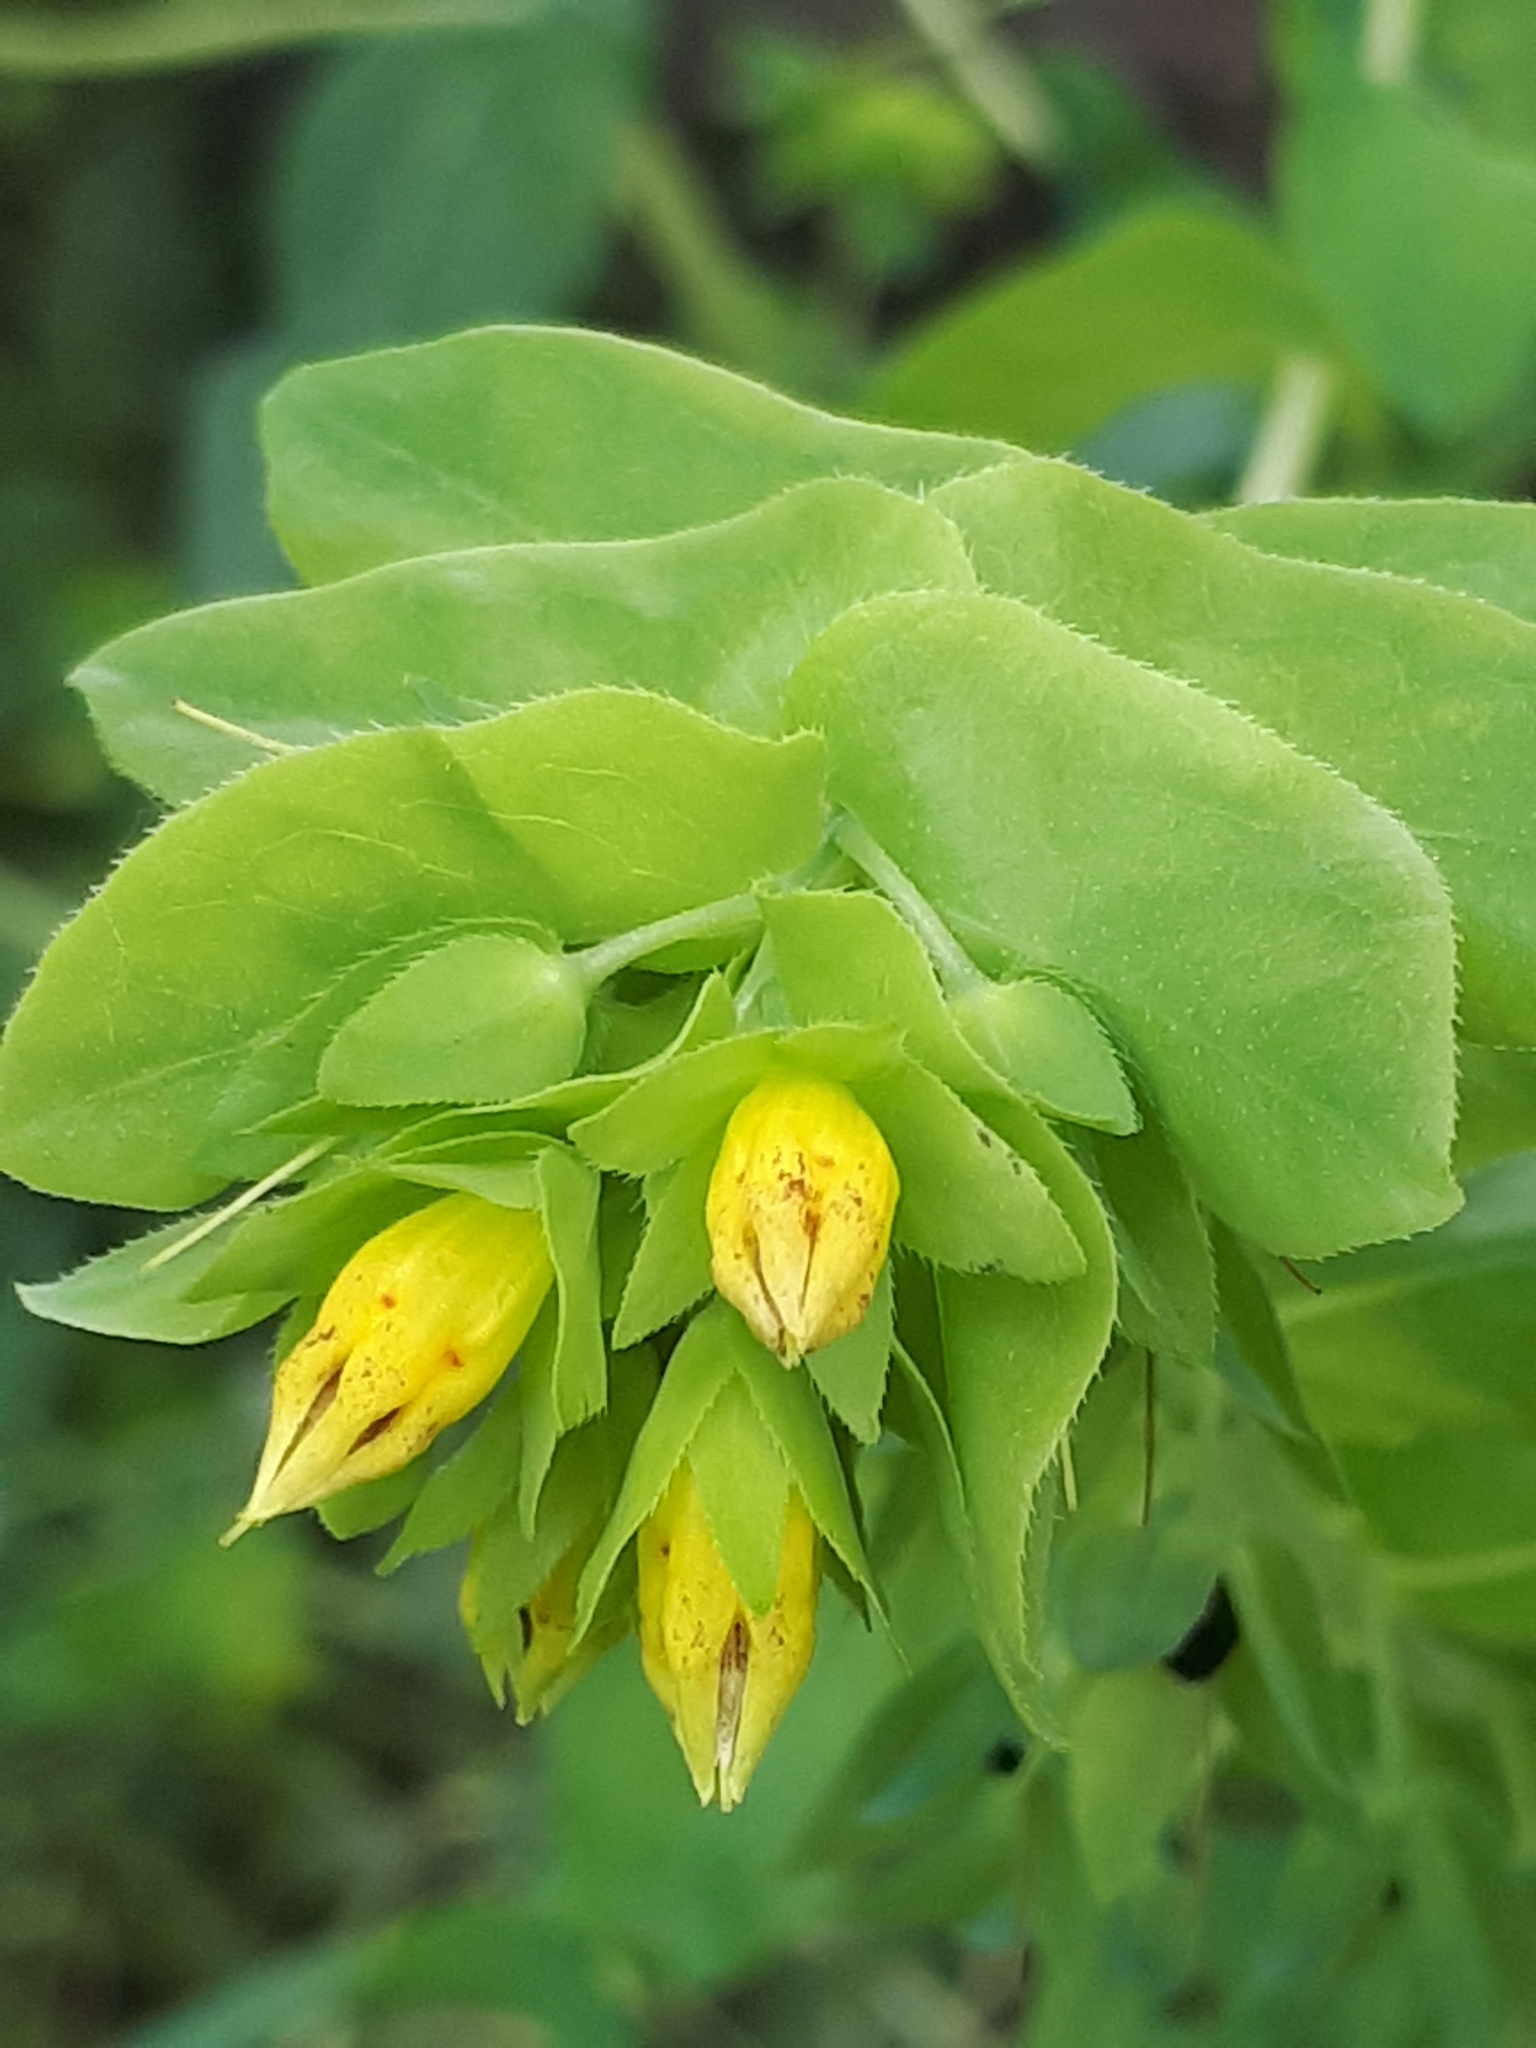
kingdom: Plantae
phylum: Tracheophyta
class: Magnoliopsida
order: Boraginales
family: Boraginaceae
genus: Cerinthe
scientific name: Cerinthe minor
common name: Lesser honeywort
